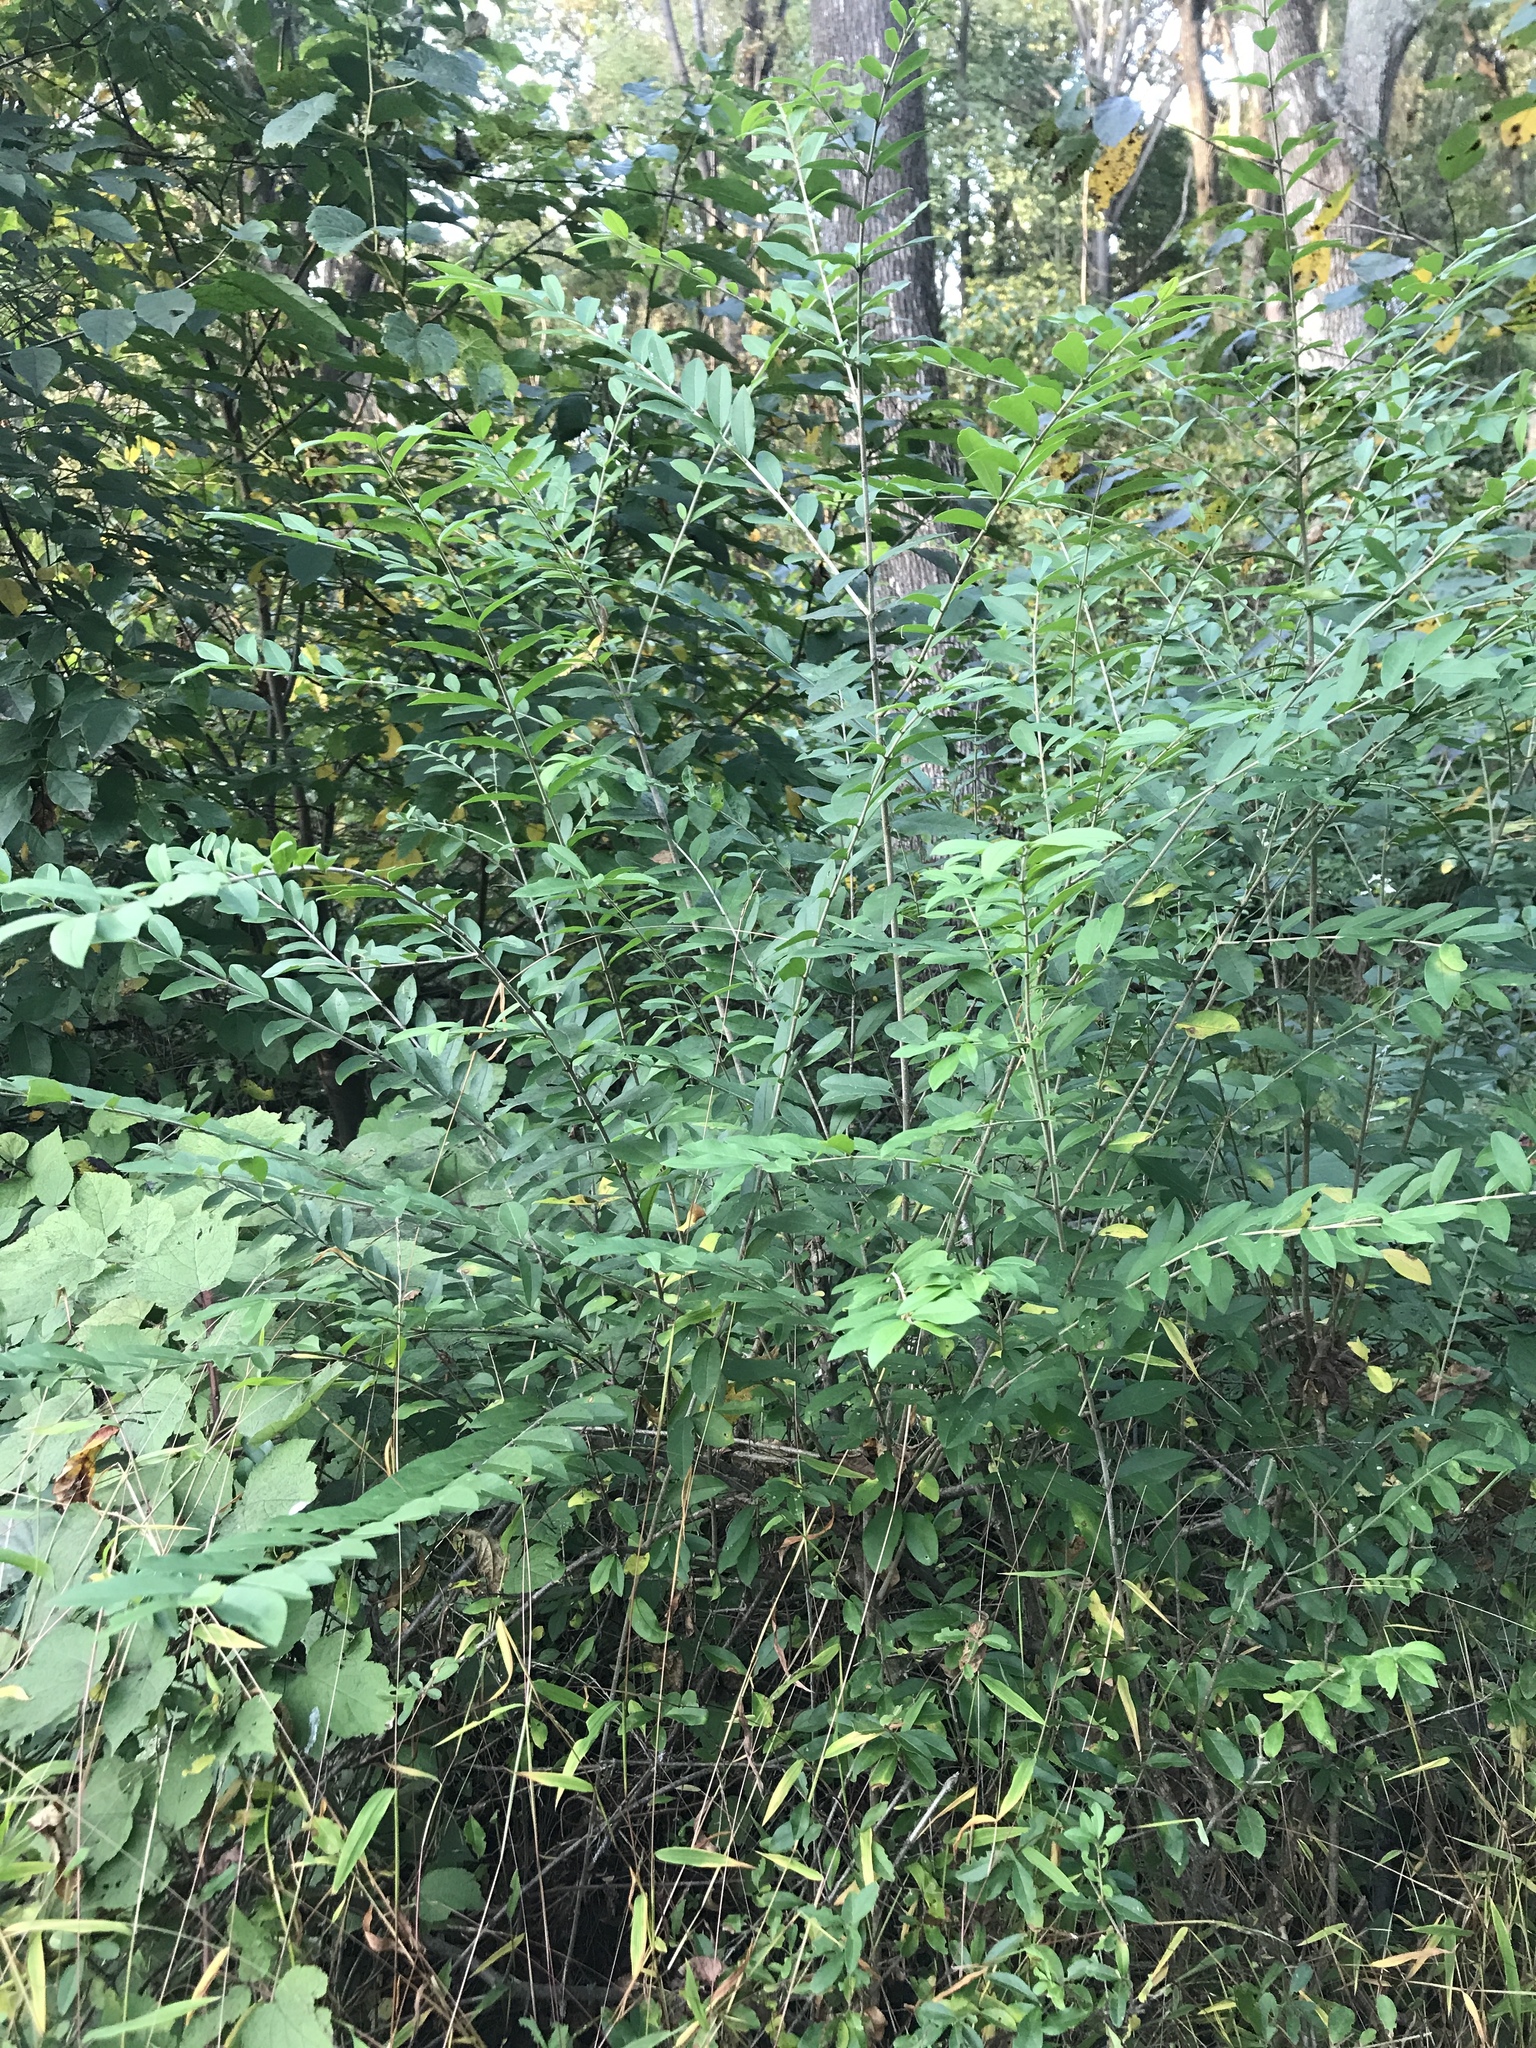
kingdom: Plantae
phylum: Tracheophyta
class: Magnoliopsida
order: Lamiales
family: Oleaceae
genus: Ligustrum
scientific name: Ligustrum obtusifolium
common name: Border privet
